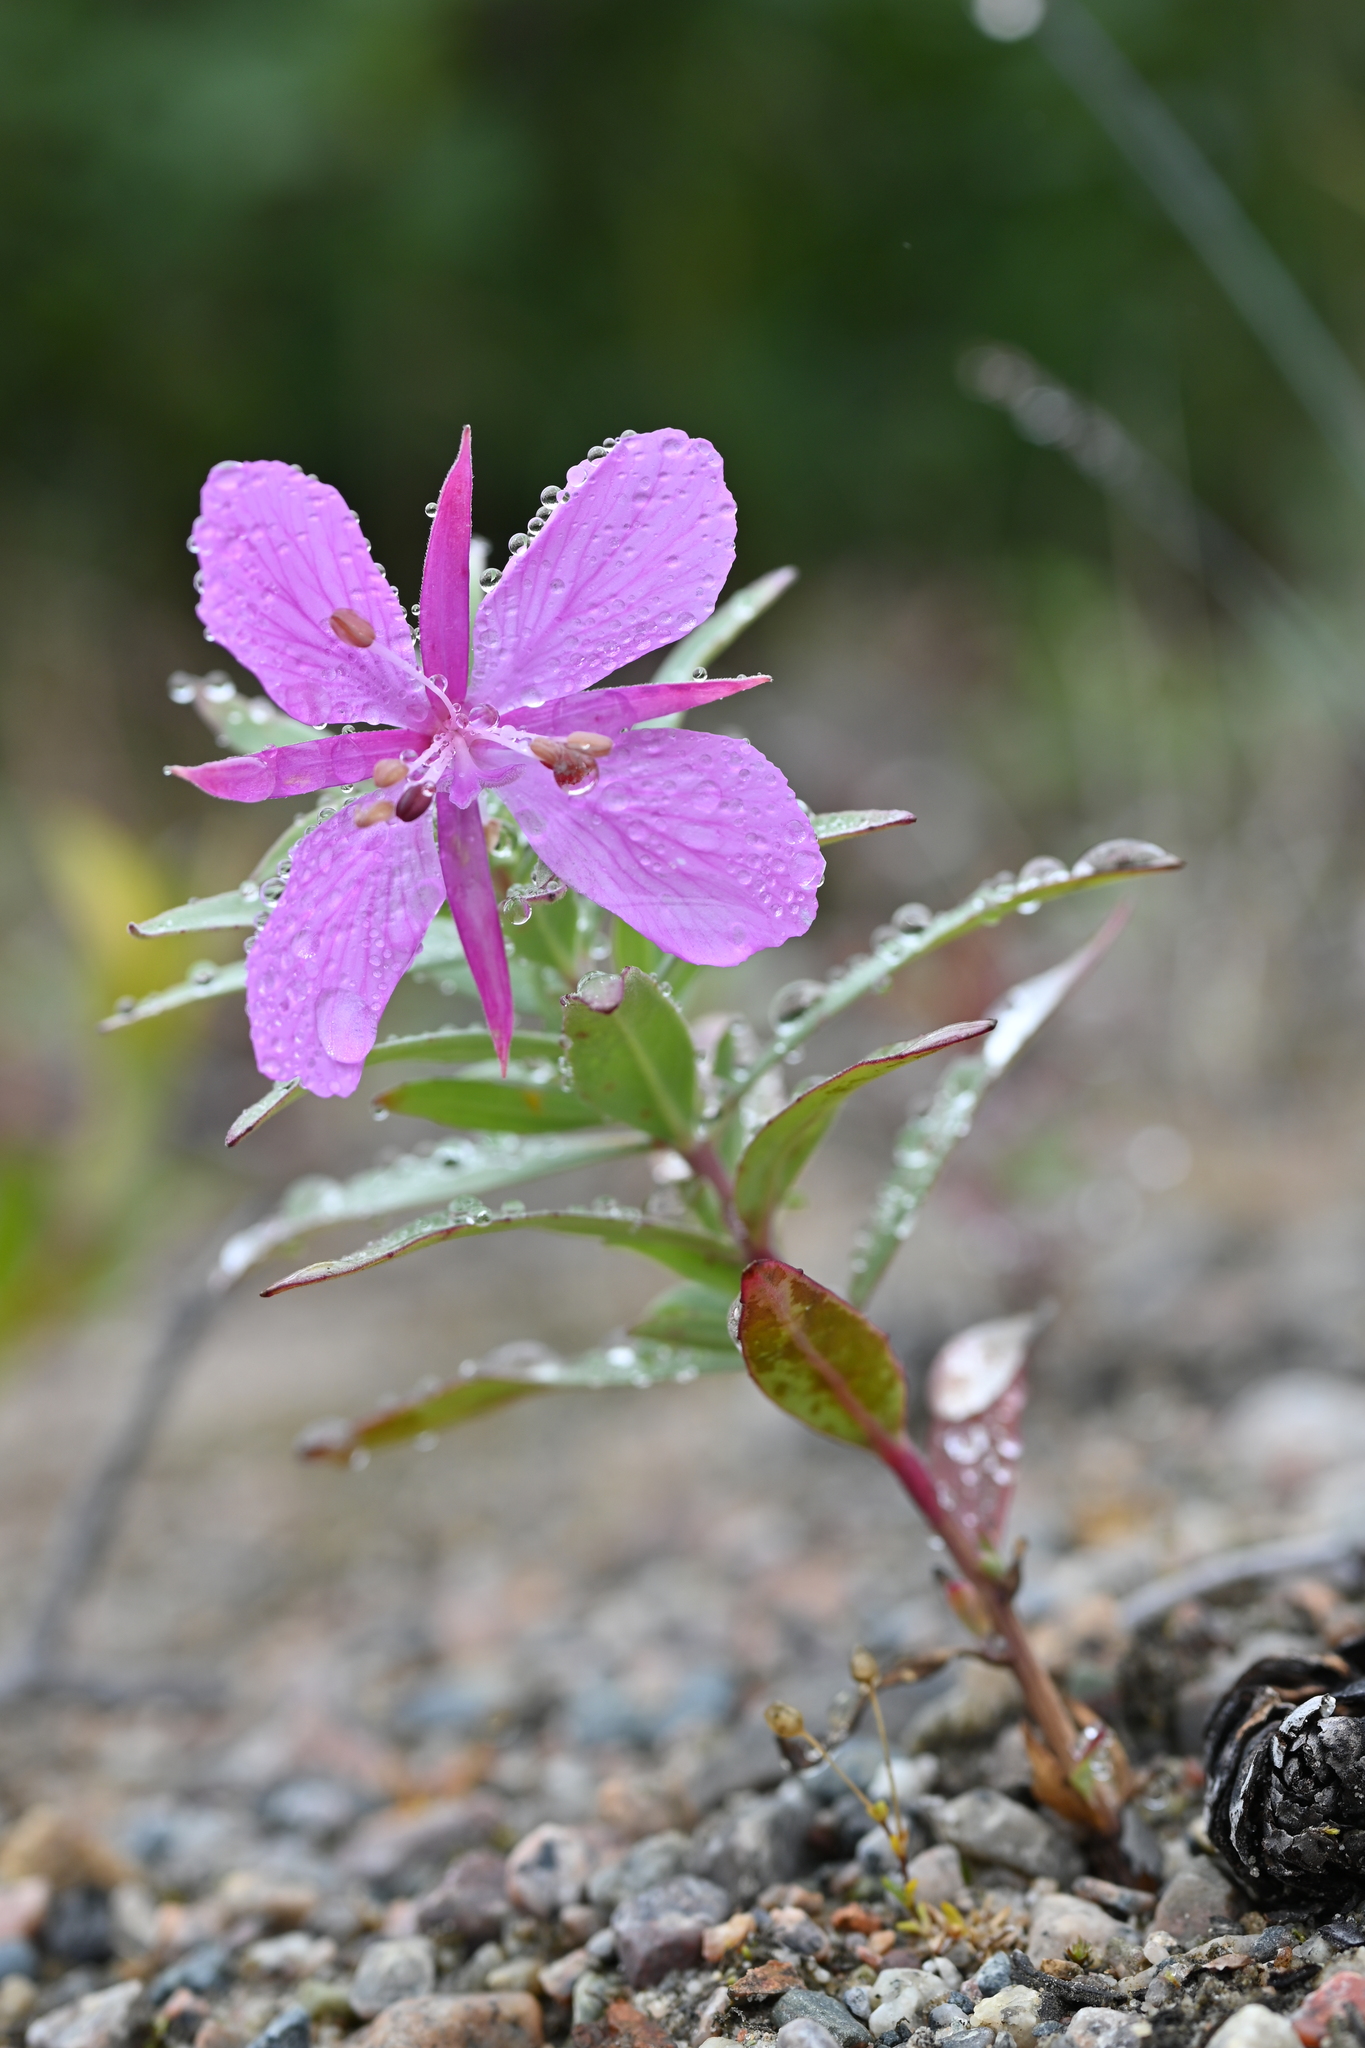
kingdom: Plantae
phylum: Tracheophyta
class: Magnoliopsida
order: Myrtales
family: Onagraceae
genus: Chamaenerion
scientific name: Chamaenerion latifolium
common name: Dwarf fireweed
